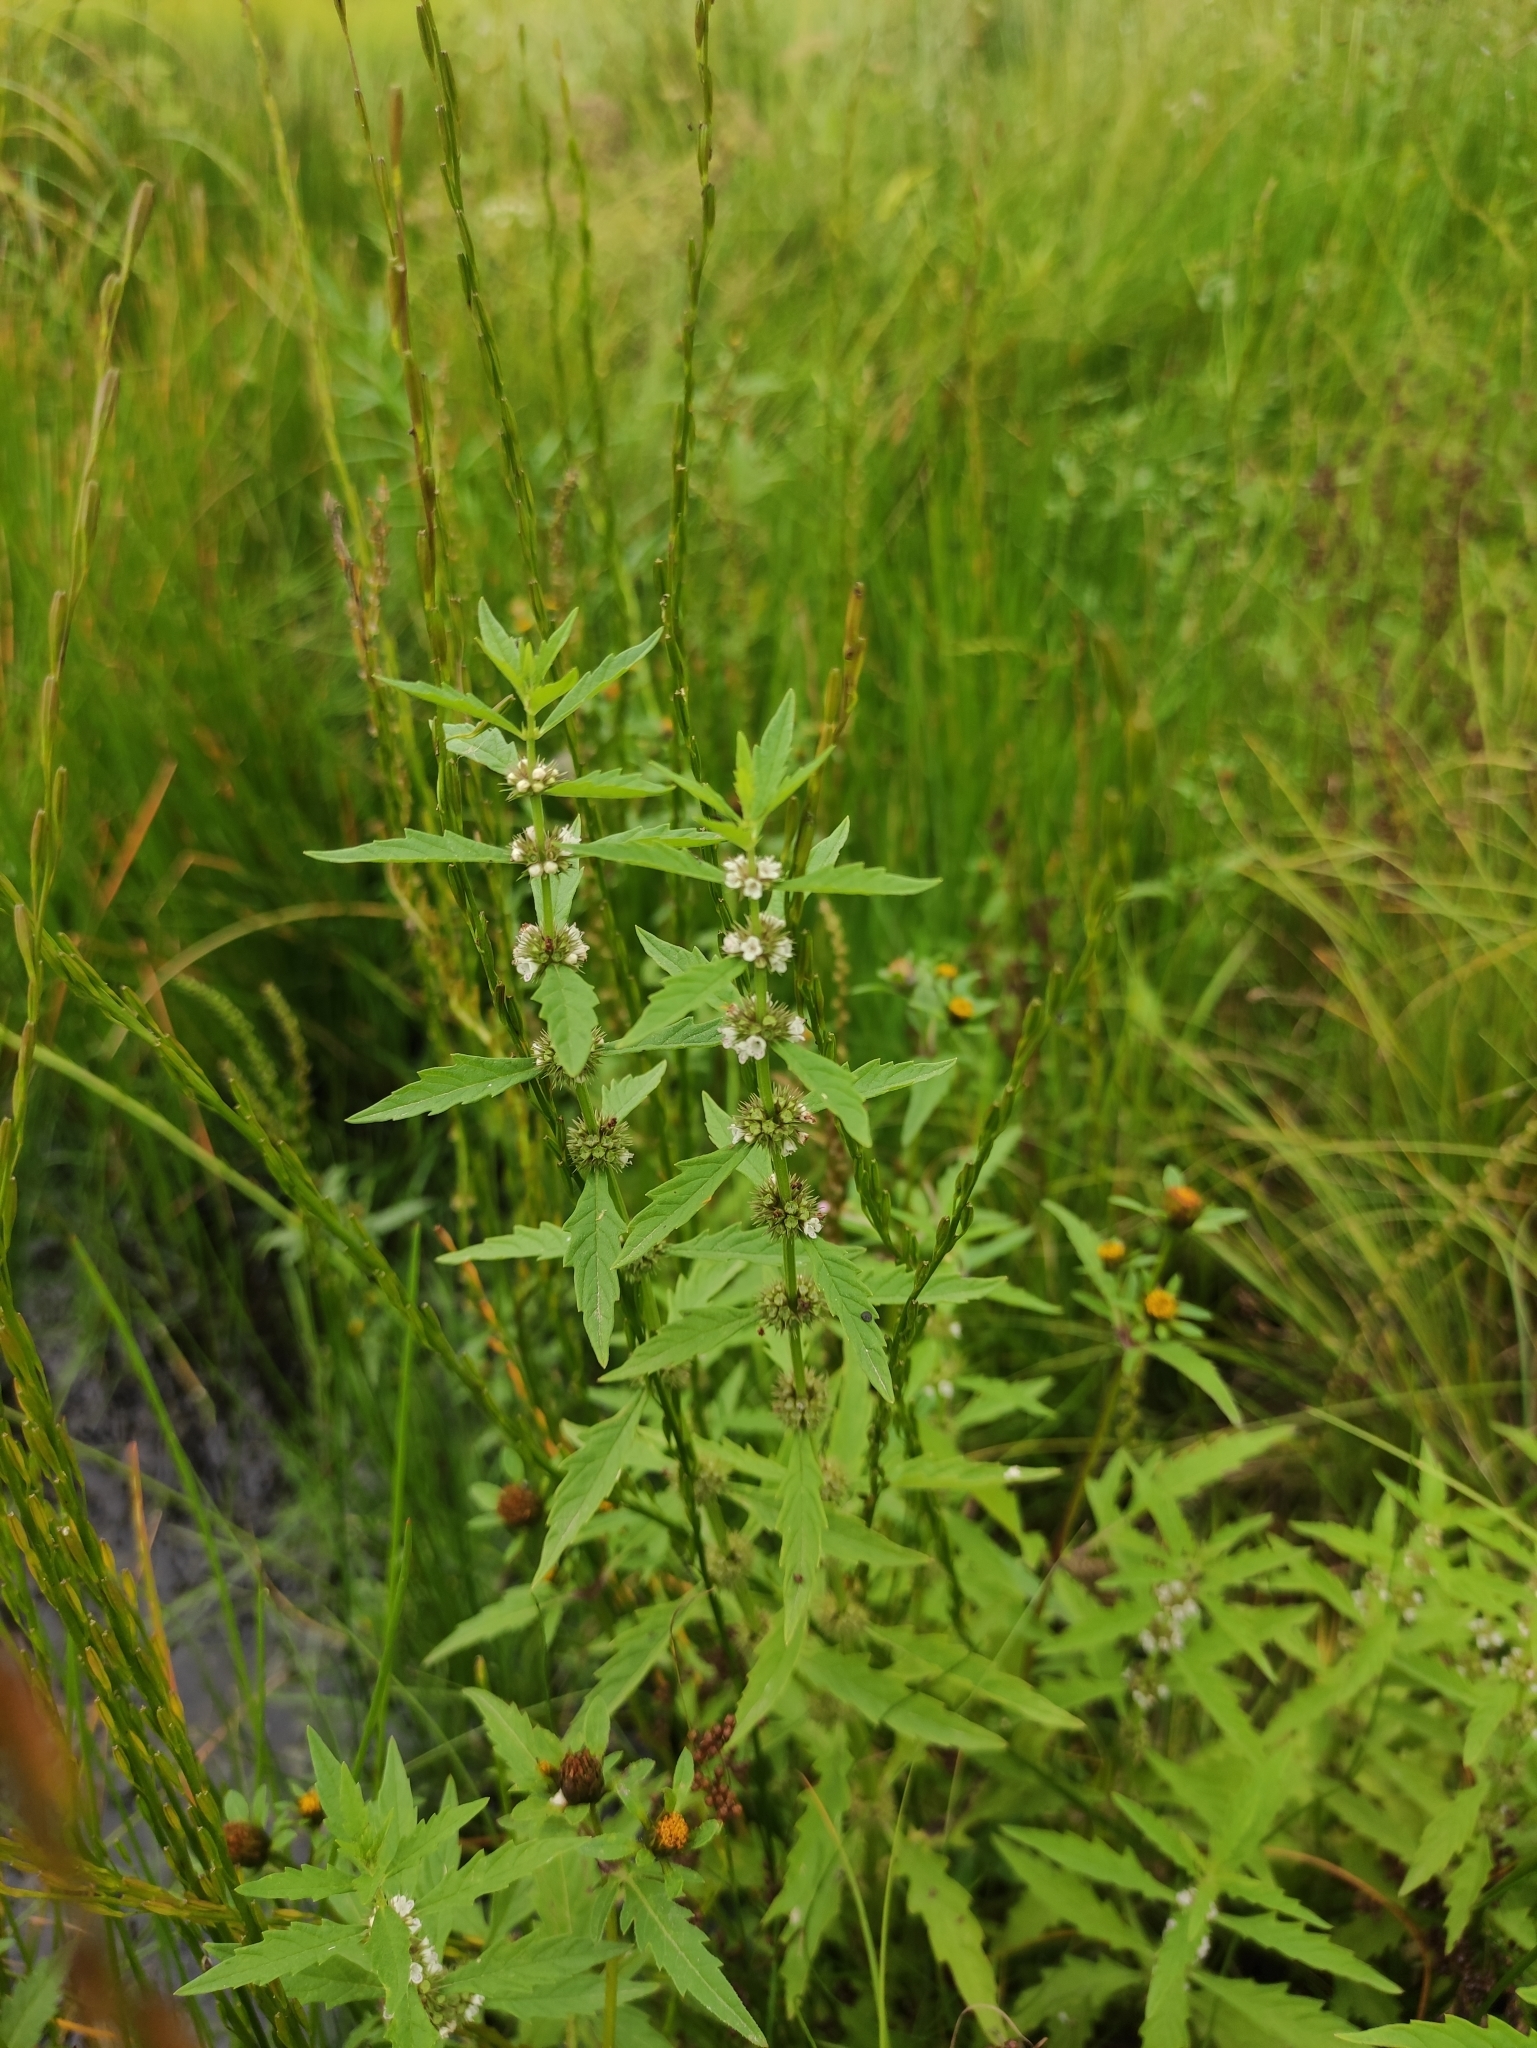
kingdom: Plantae
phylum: Tracheophyta
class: Magnoliopsida
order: Lamiales
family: Lamiaceae
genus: Lycopus
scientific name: Lycopus europaeus
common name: European bugleweed
